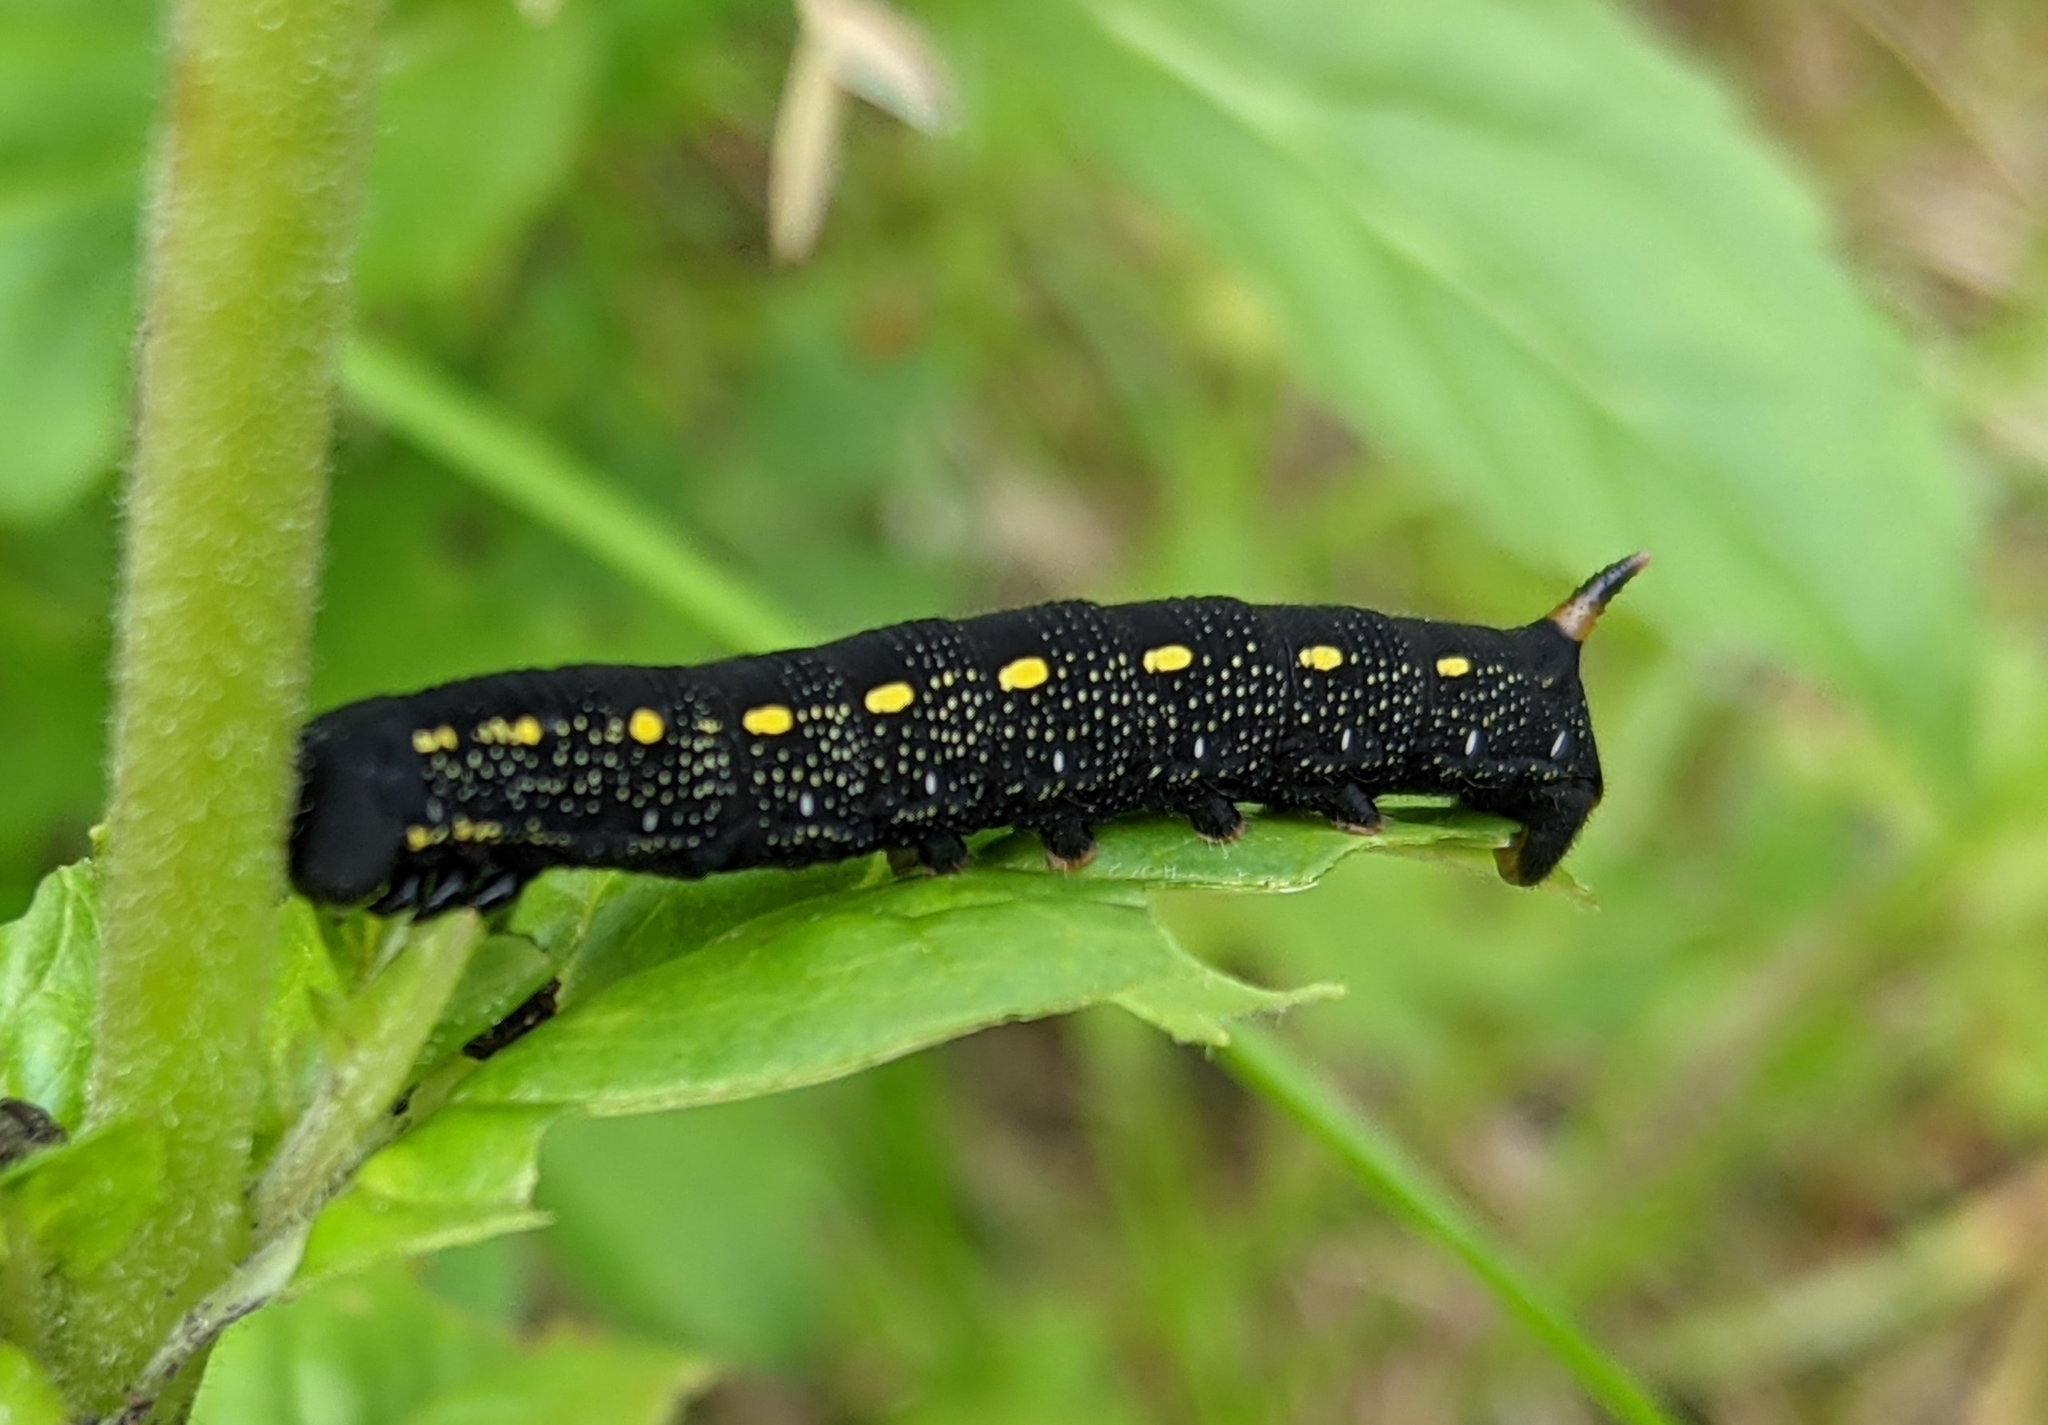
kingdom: Animalia
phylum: Arthropoda
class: Insecta
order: Lepidoptera
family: Sphingidae
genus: Hyles
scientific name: Hyles gallii
